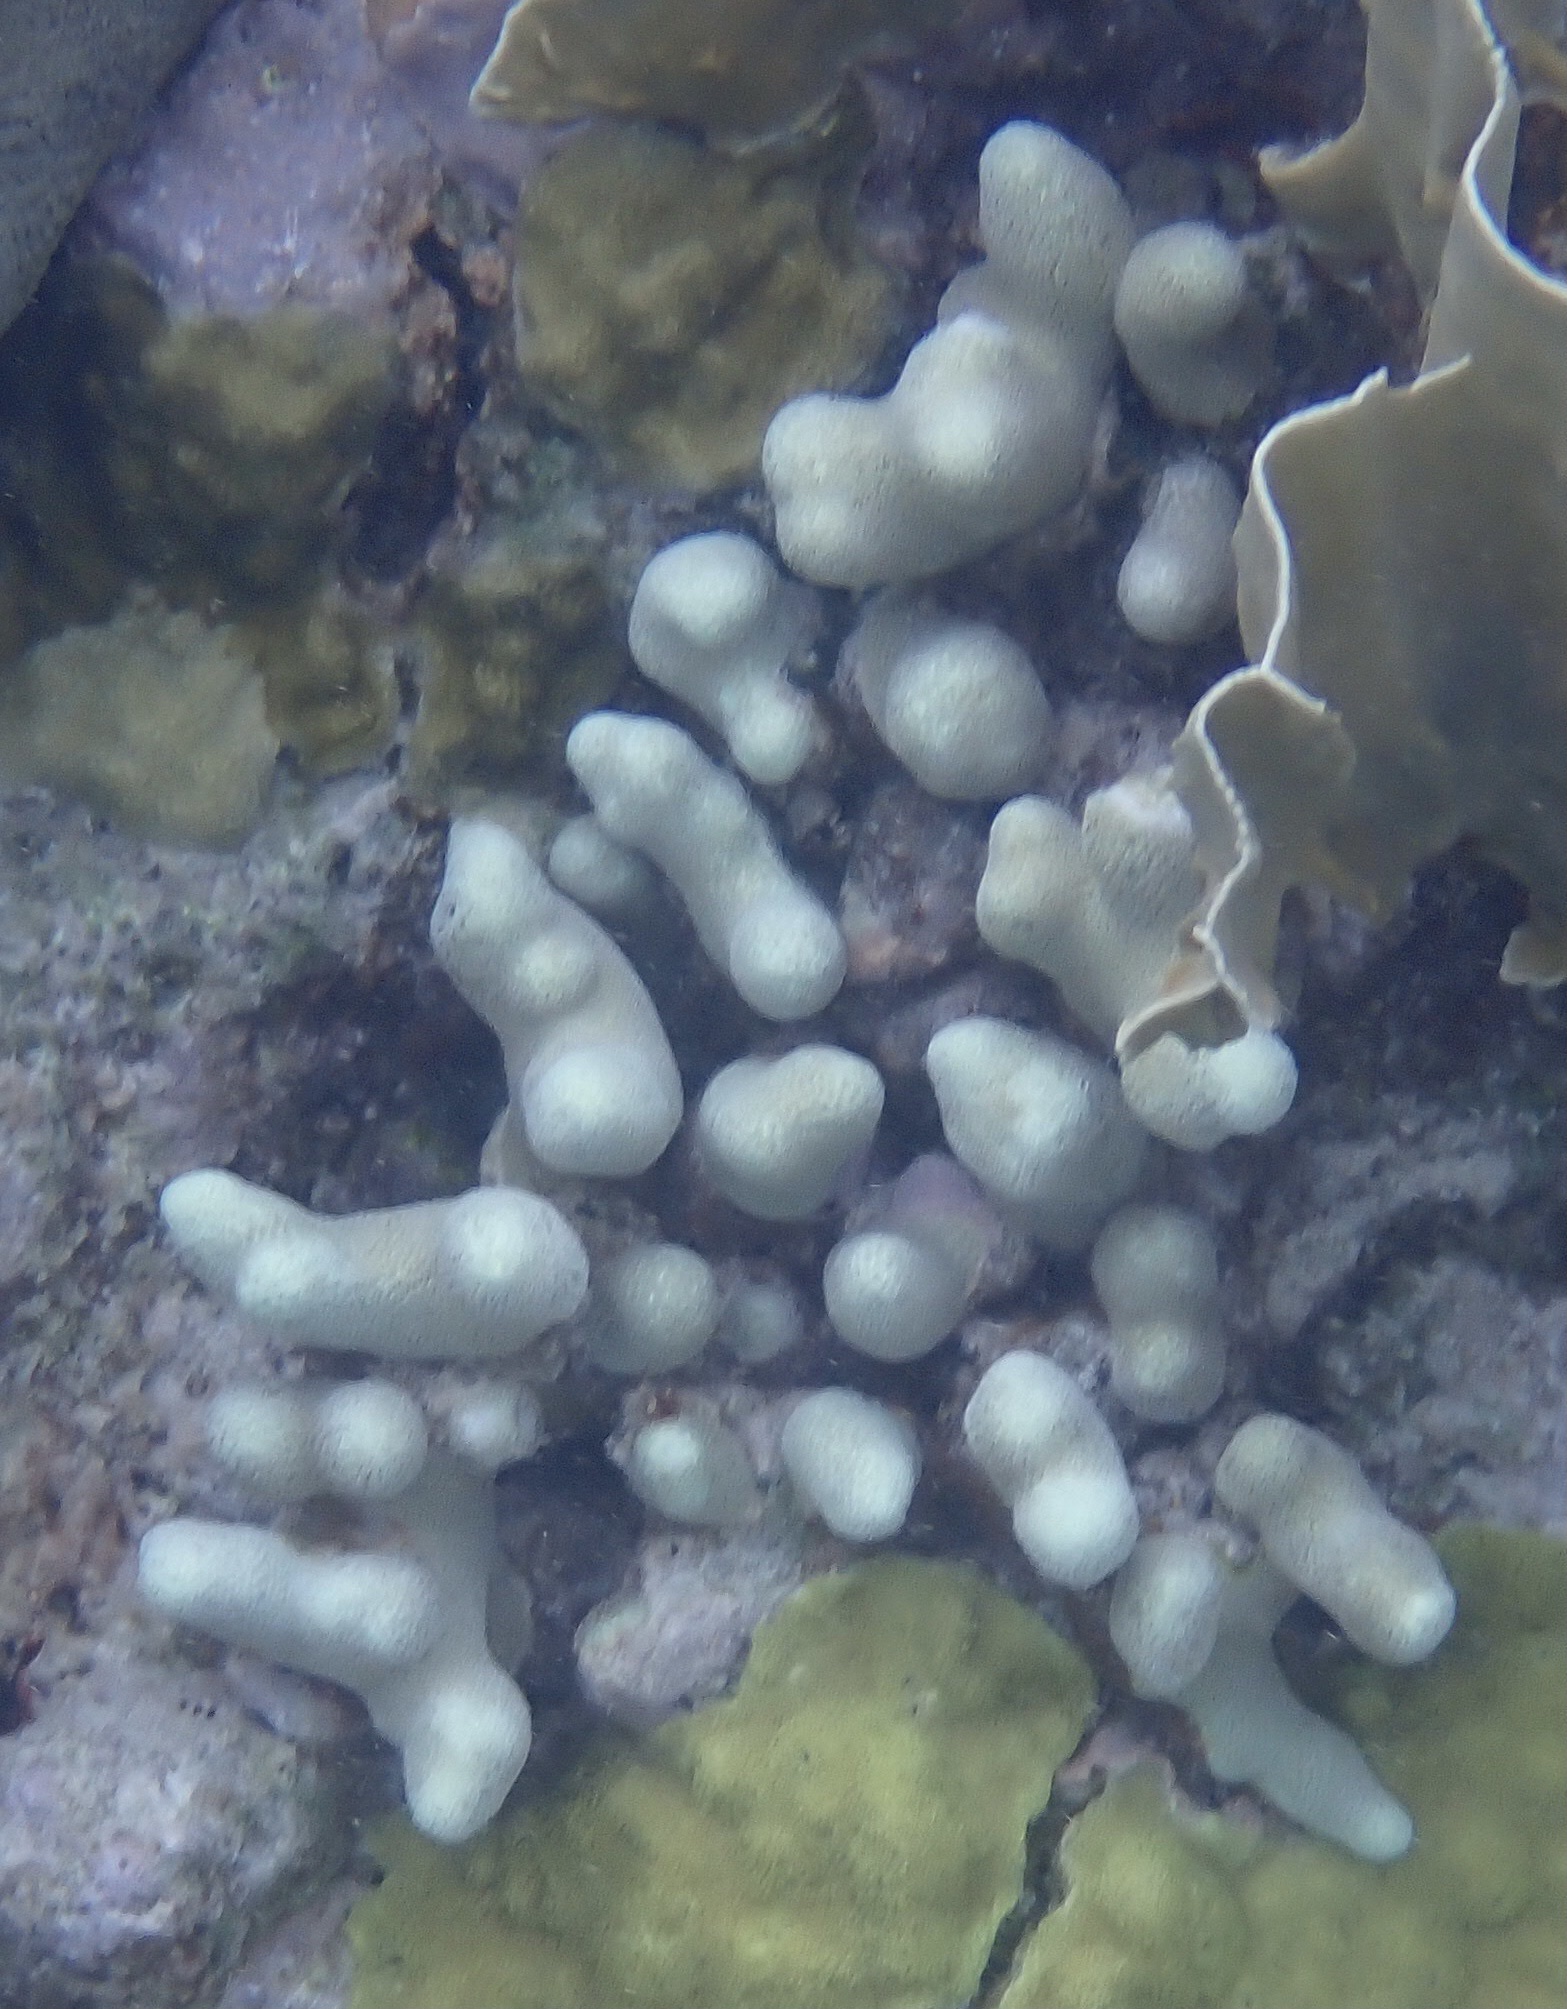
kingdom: Animalia
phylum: Cnidaria
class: Anthozoa
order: Scleractinia
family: Poritidae
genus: Porites
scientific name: Porites porites
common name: Finger coral
